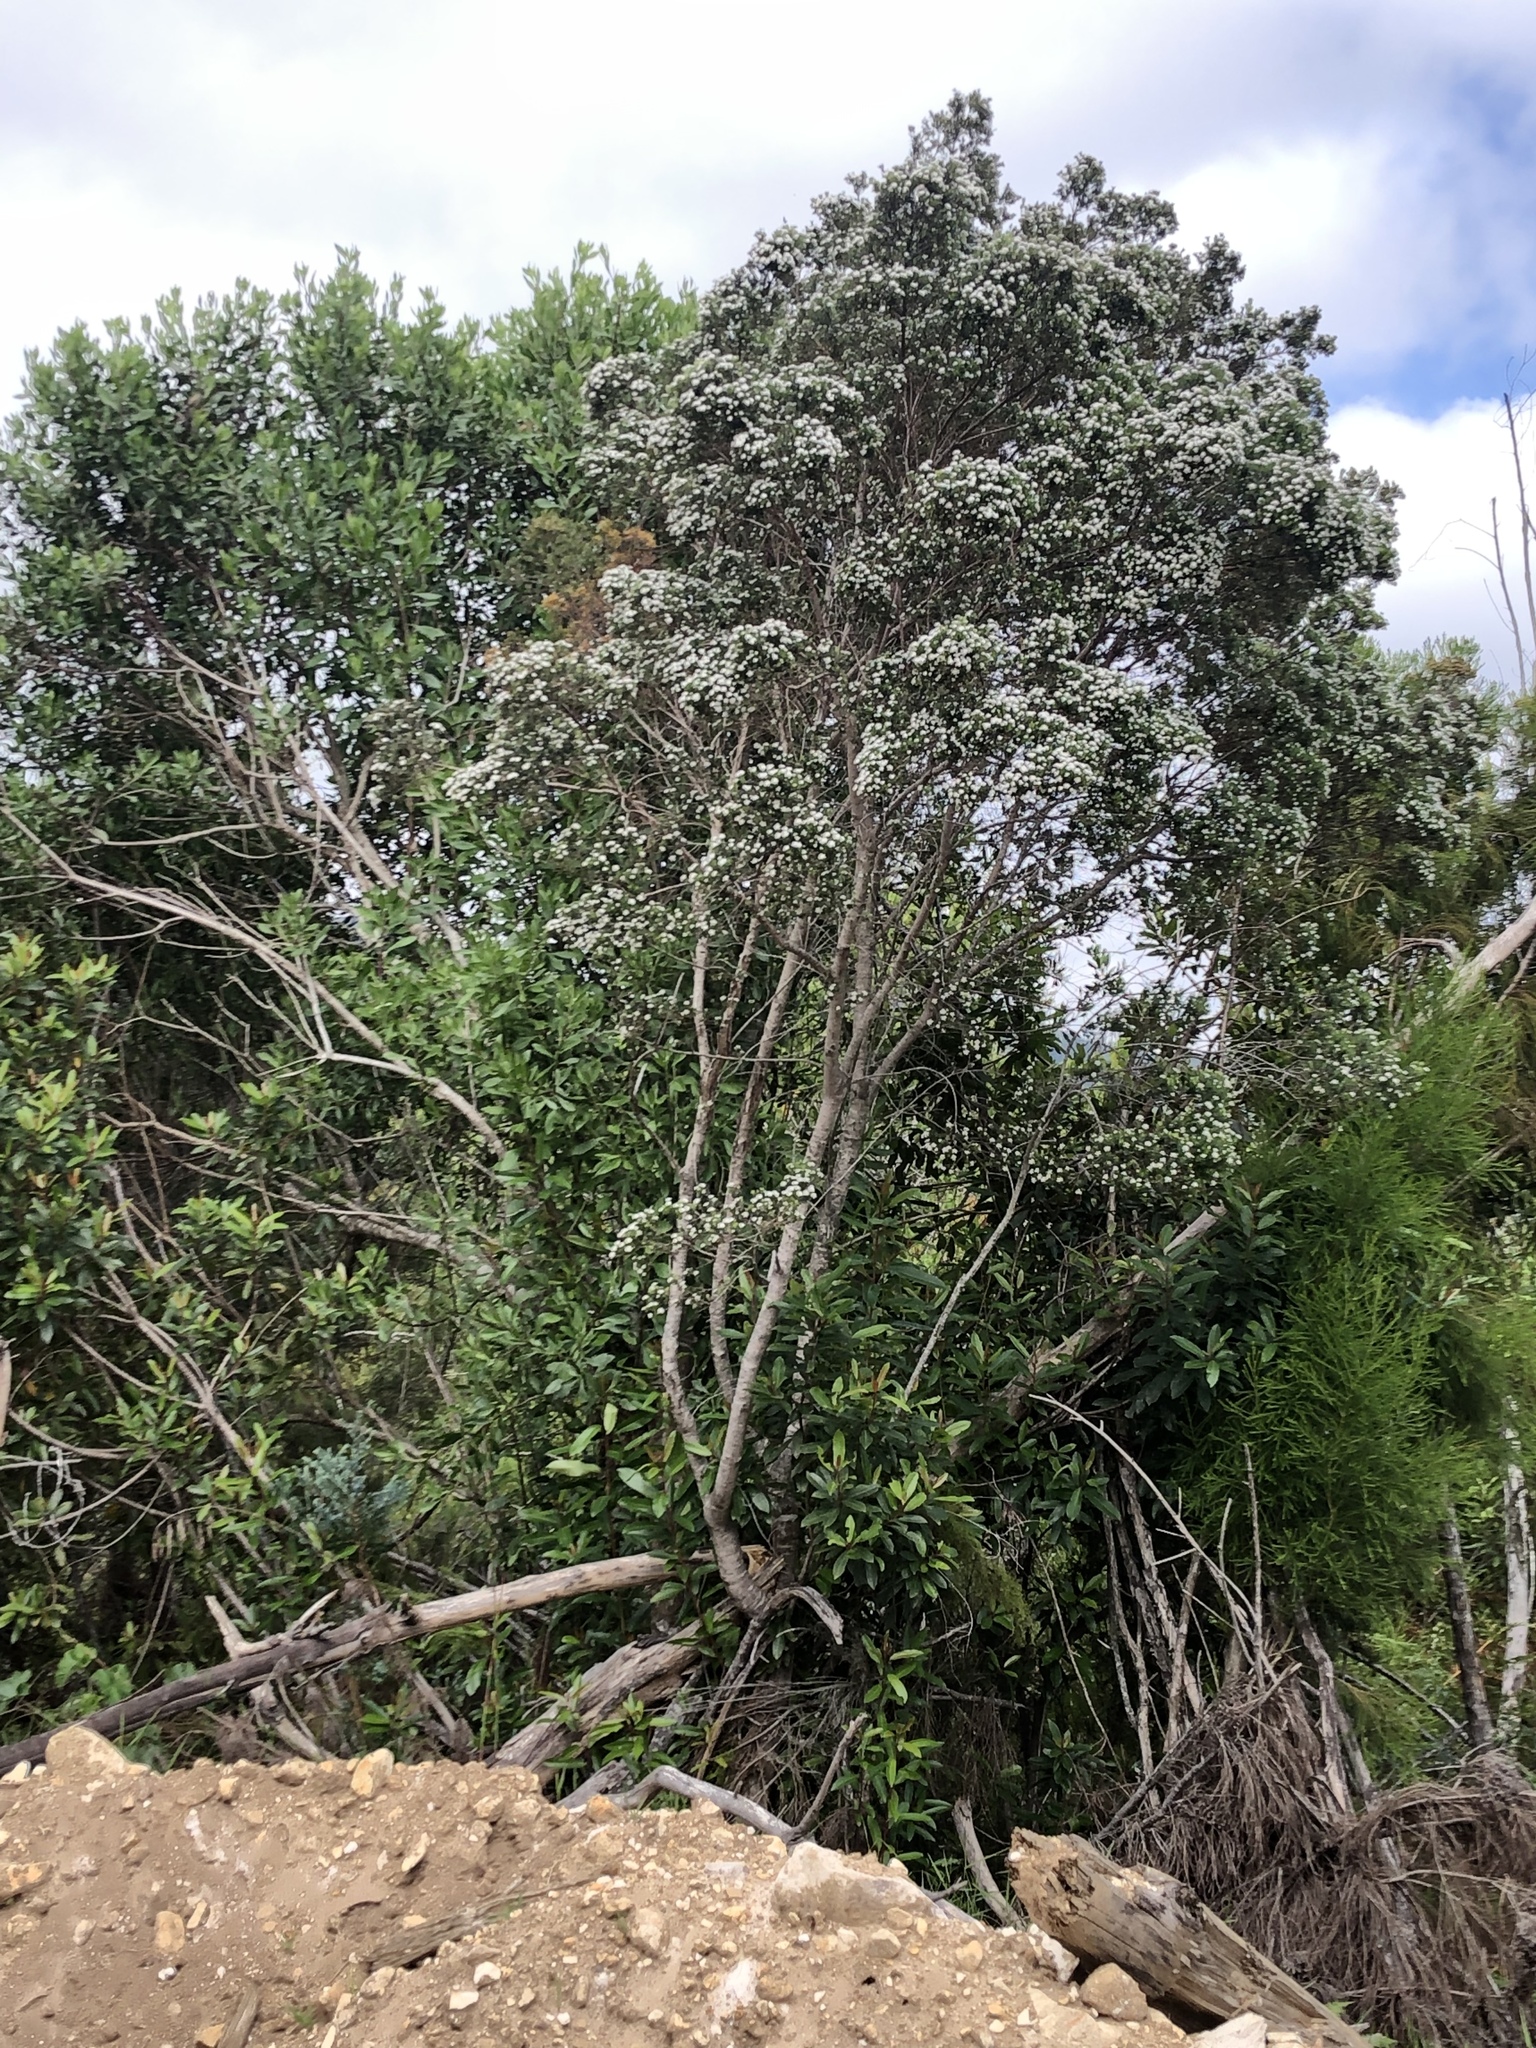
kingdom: Plantae
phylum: Tracheophyta
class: Magnoliopsida
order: Rosales
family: Rhamnaceae
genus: Phylica
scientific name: Phylica pinea
